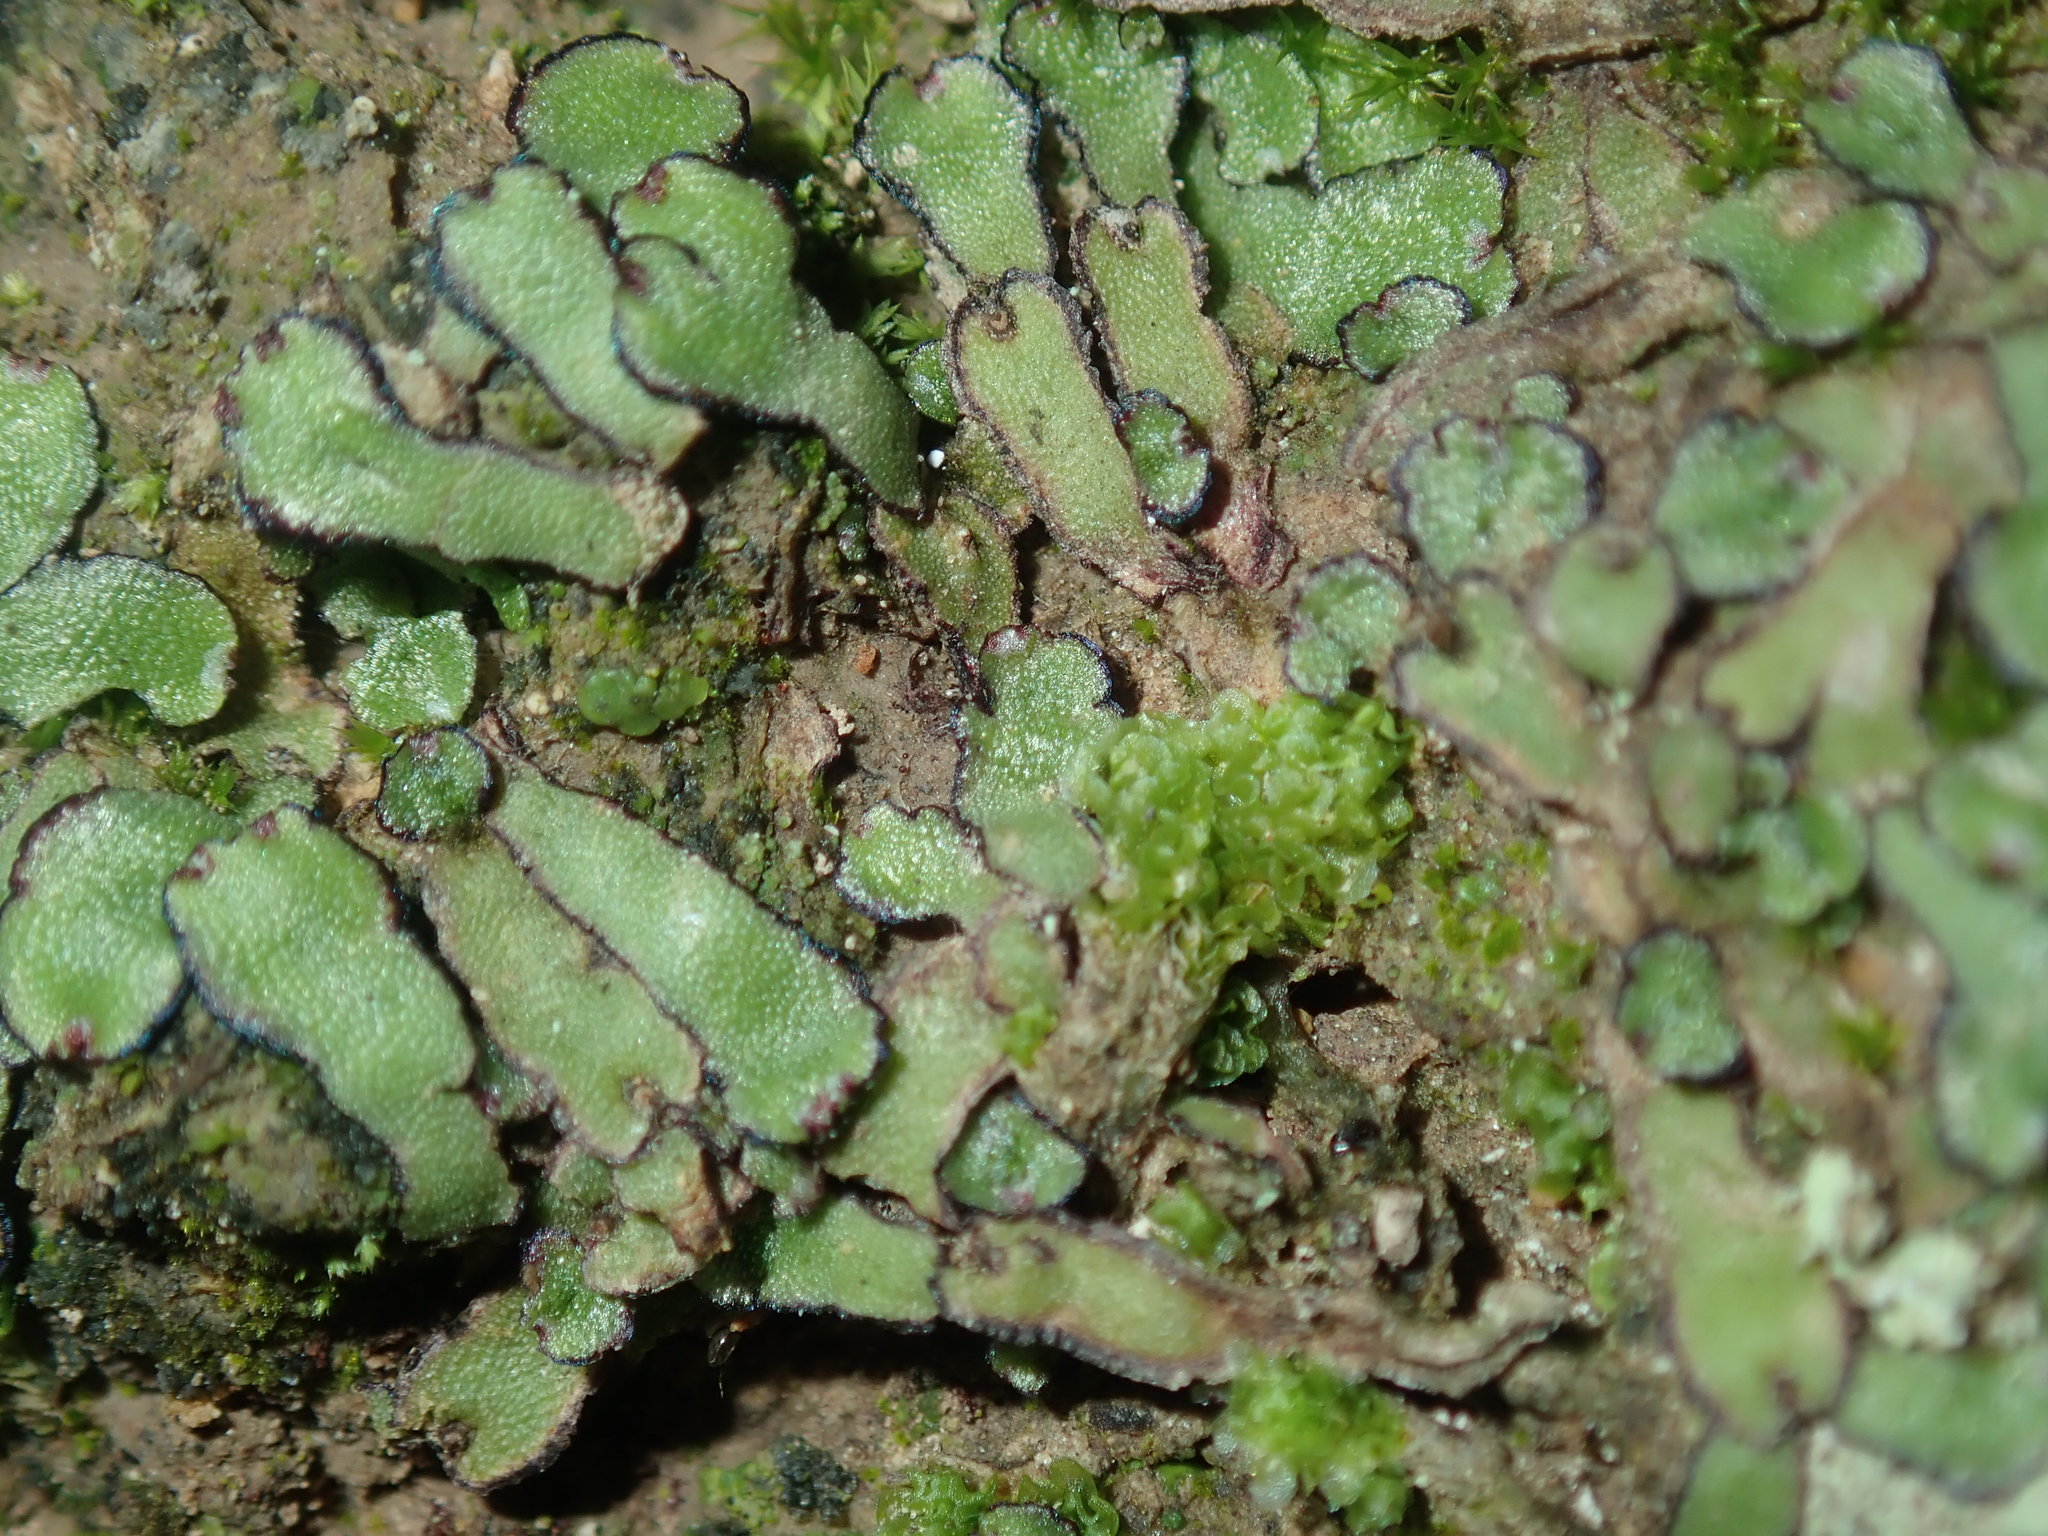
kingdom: Plantae
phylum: Marchantiophyta
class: Marchantiopsida
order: Marchantiales
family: Aytoniaceae
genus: Asterella
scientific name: Asterella drummondii
